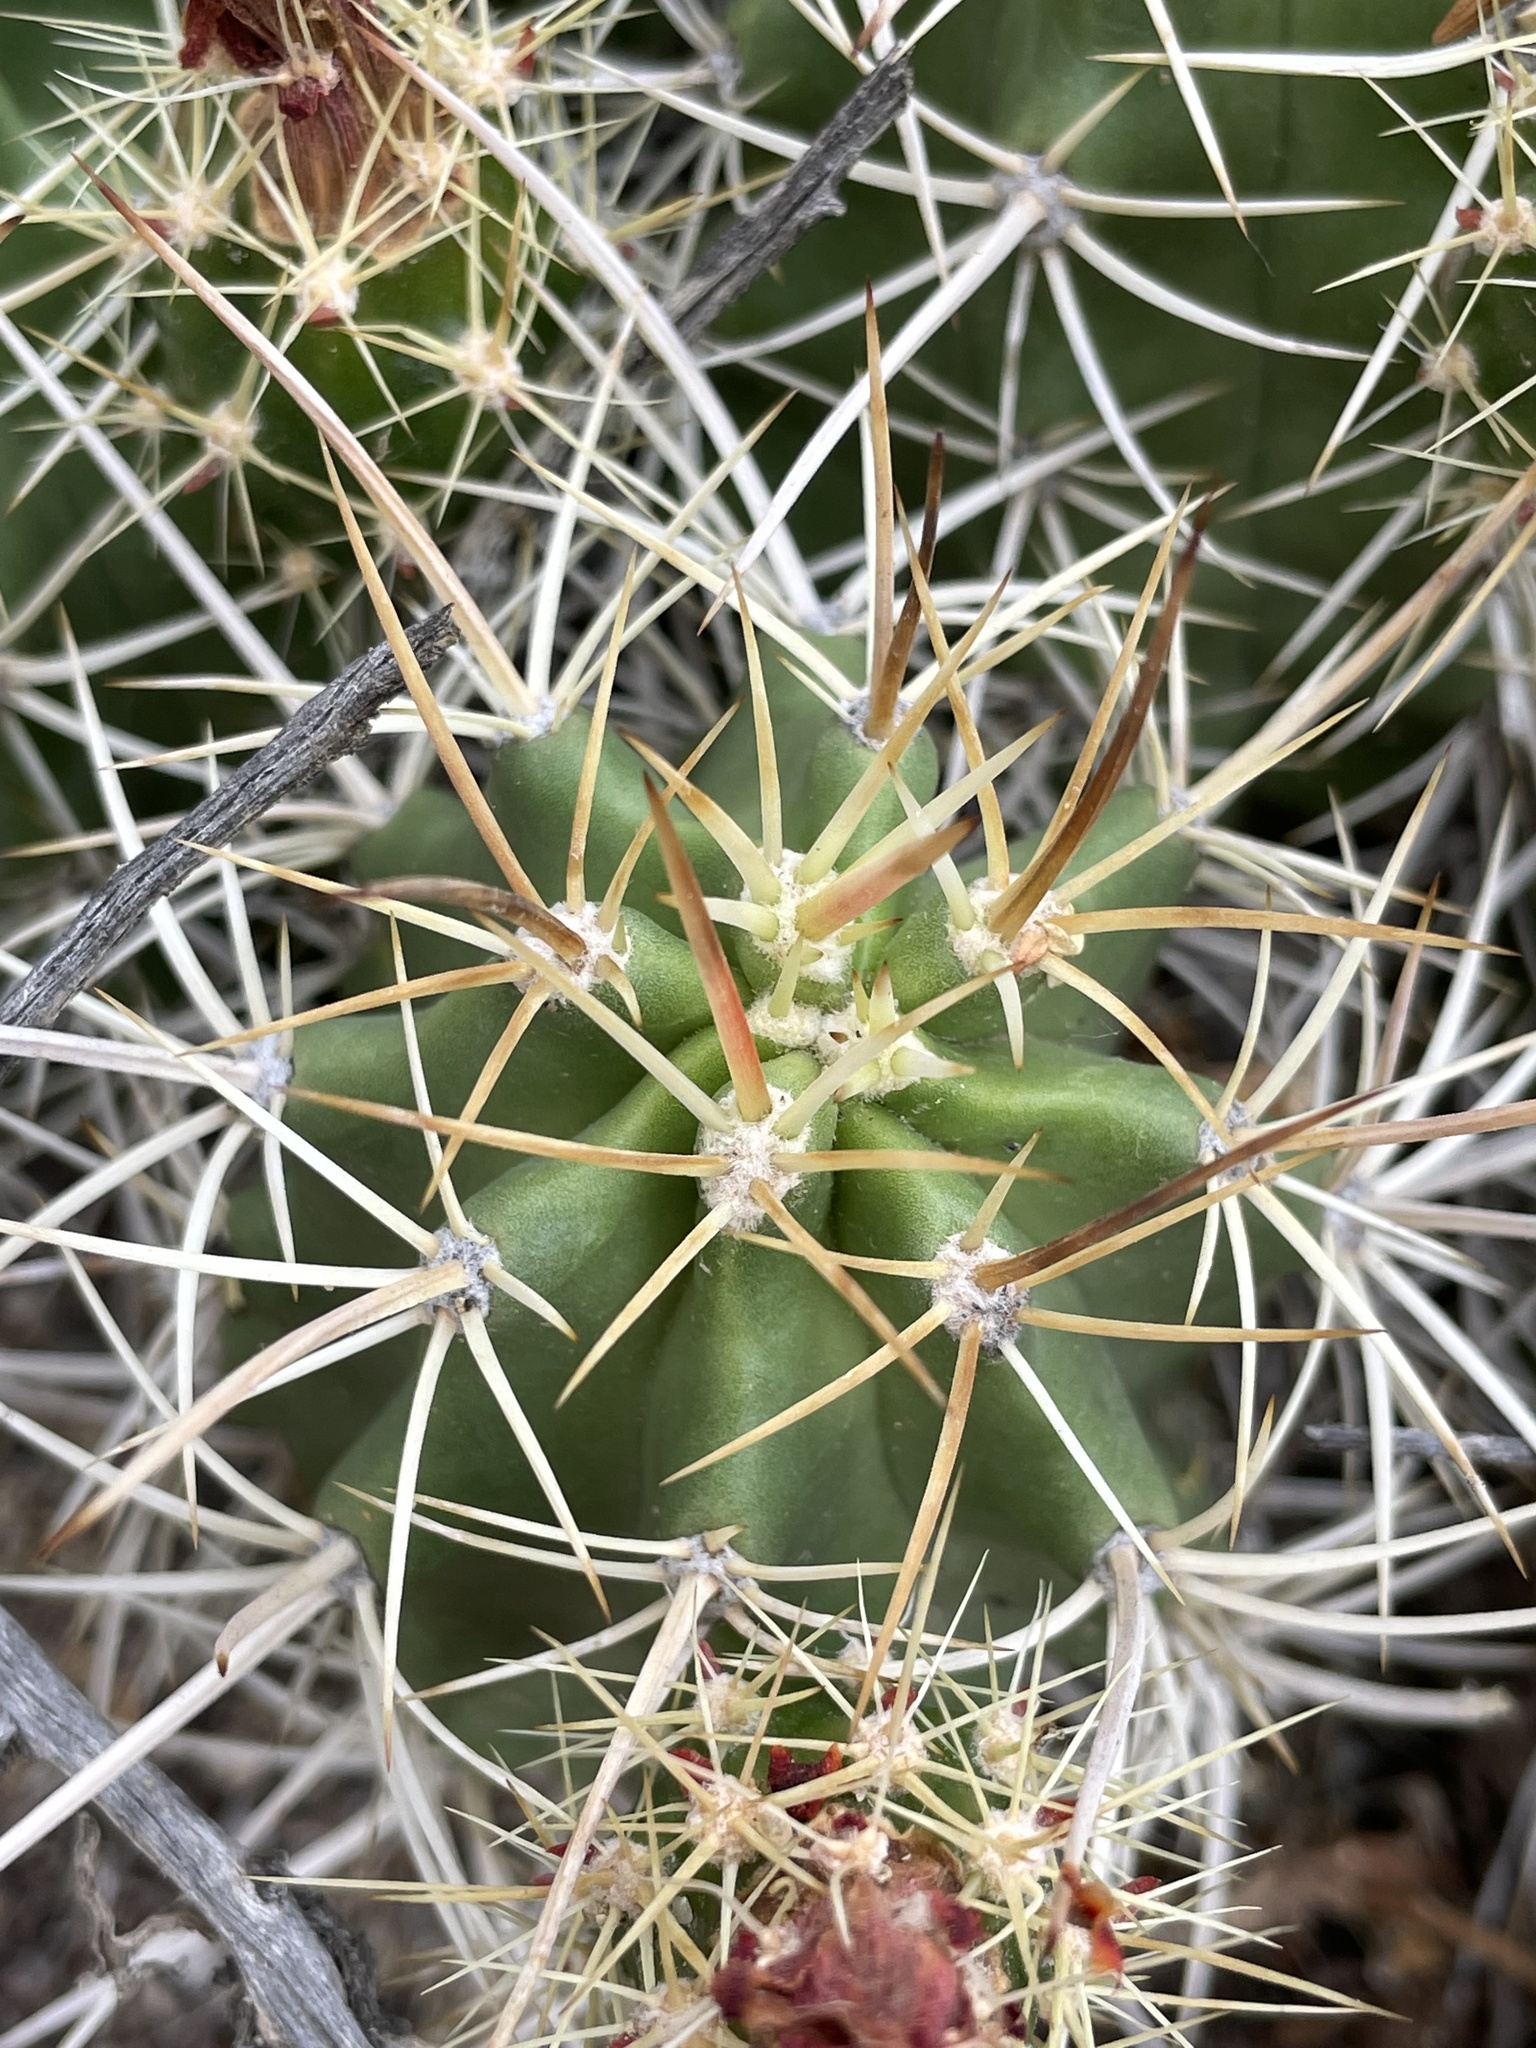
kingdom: Plantae
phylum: Tracheophyta
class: Magnoliopsida
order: Caryophyllales
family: Cactaceae
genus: Echinocereus
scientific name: Echinocereus triglochidiatus
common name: Claretcup hedgehog
